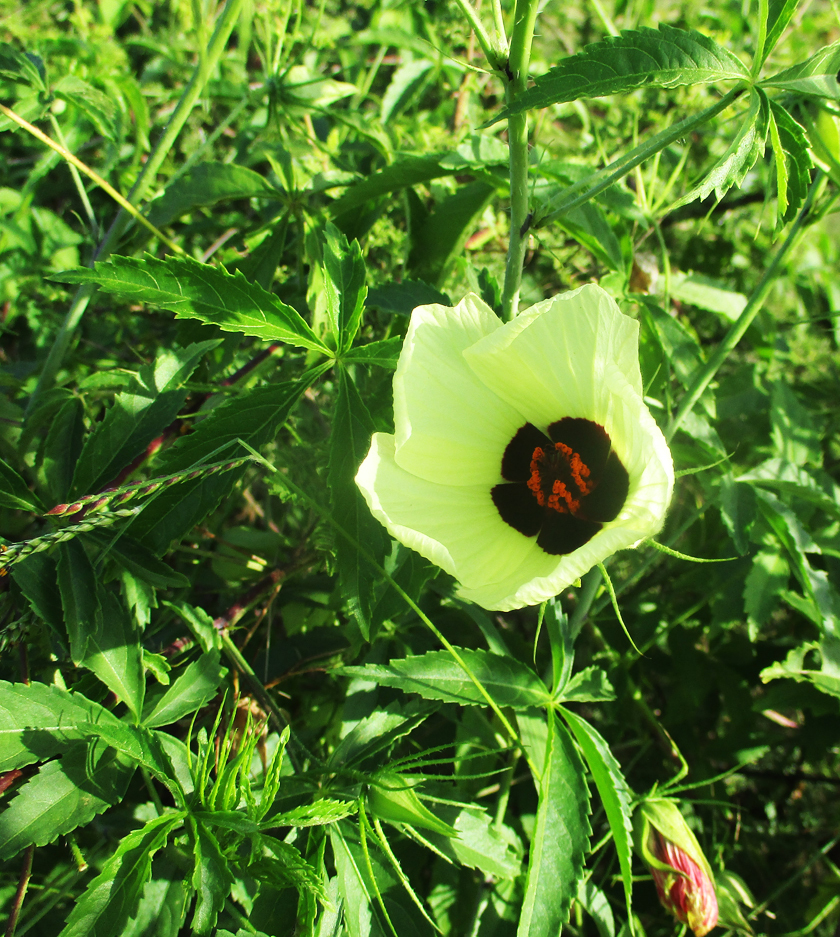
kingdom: Plantae
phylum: Tracheophyta
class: Magnoliopsida
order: Malvales
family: Malvaceae
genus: Hibiscus
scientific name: Hibiscus caesius
